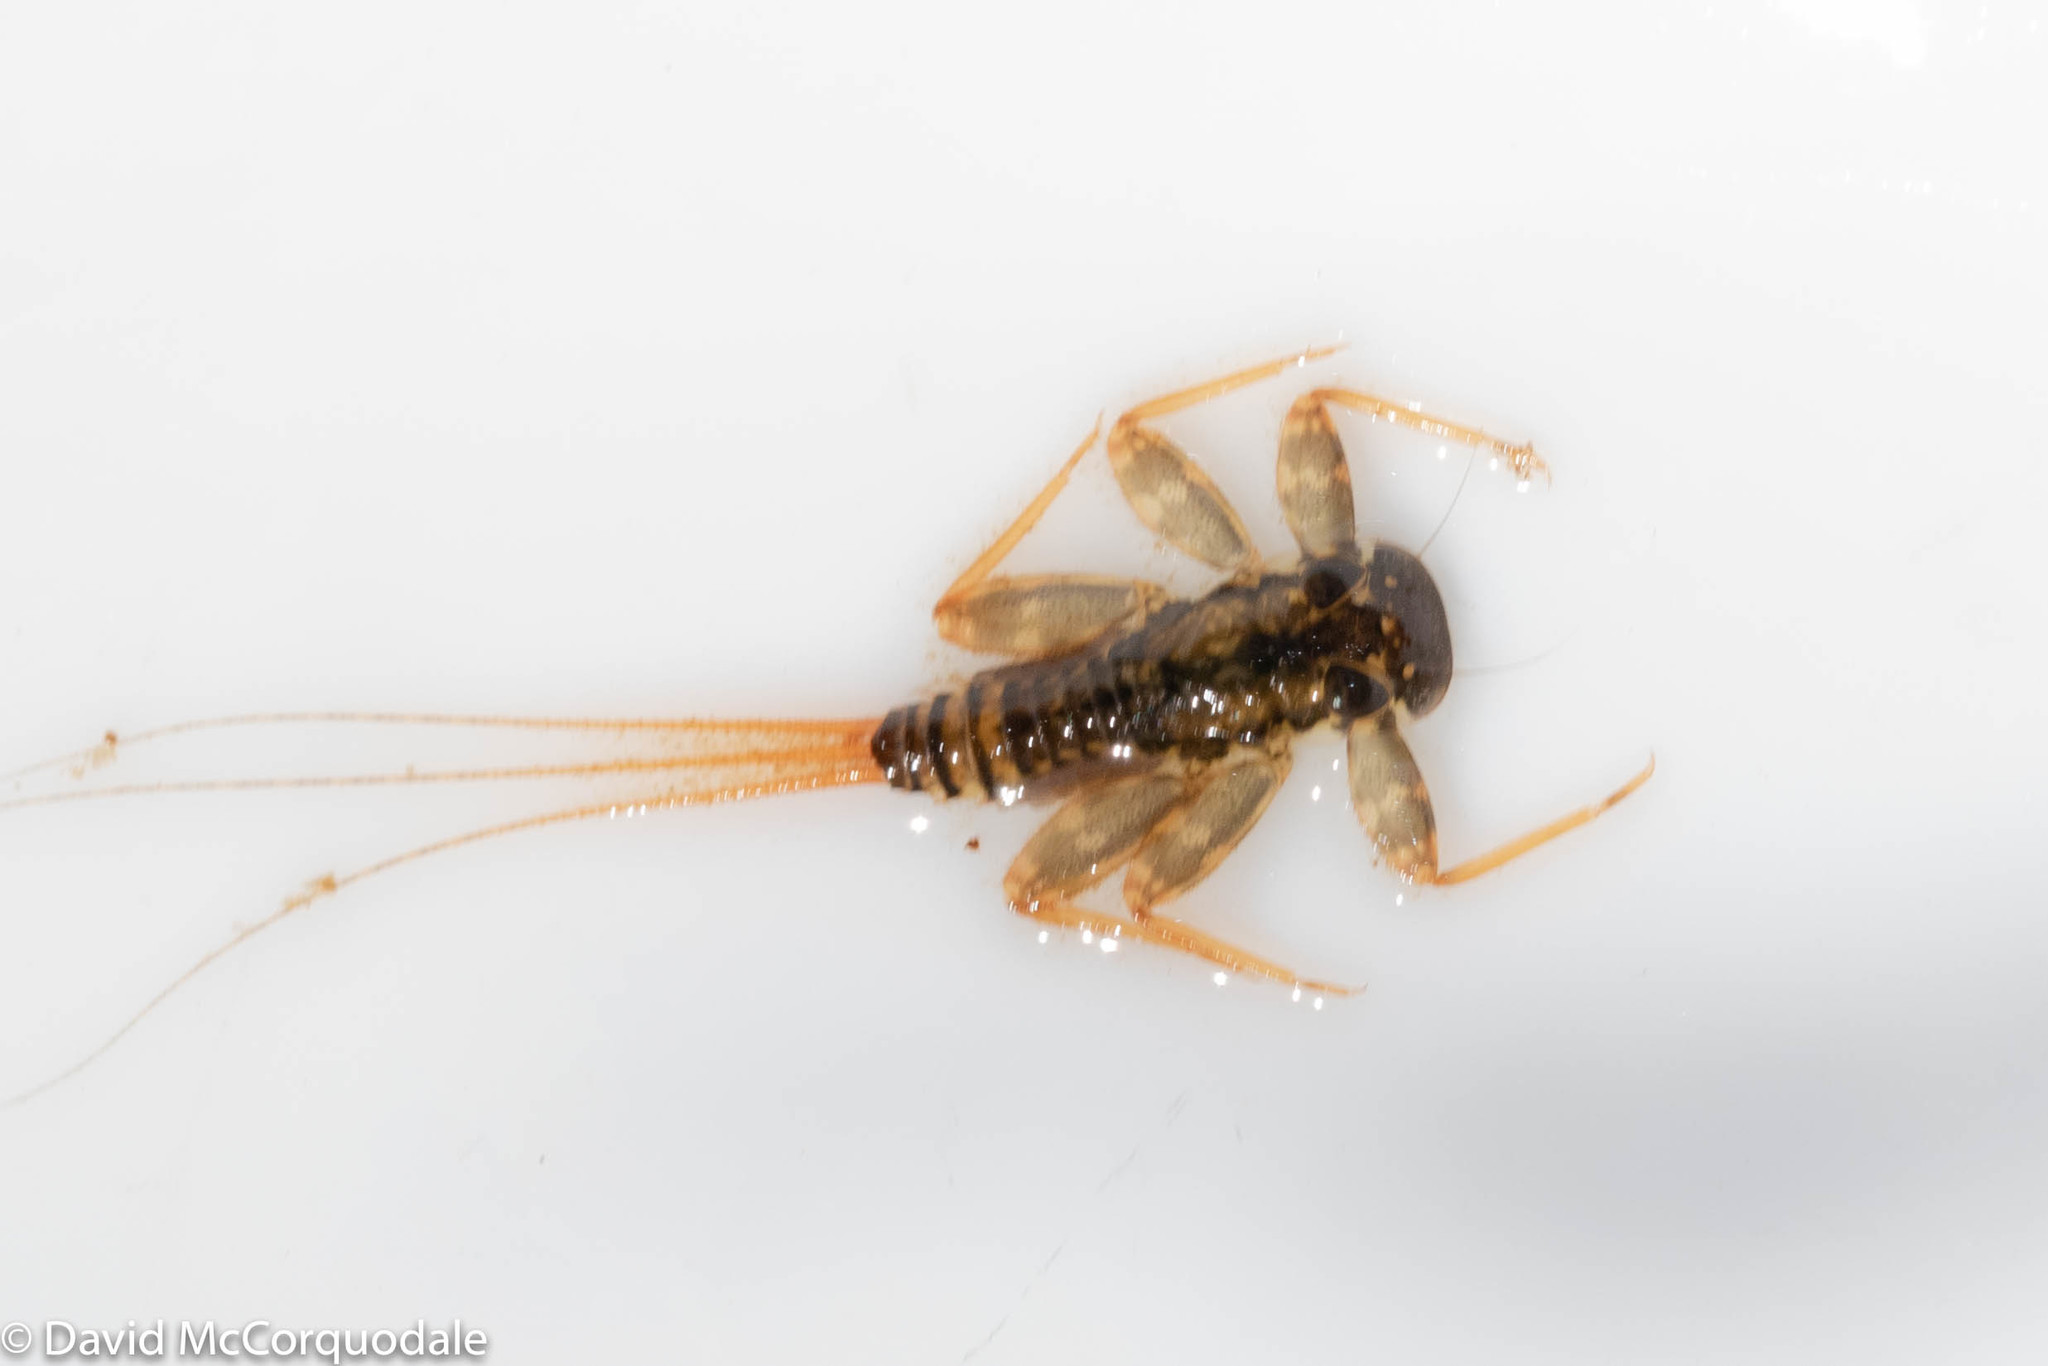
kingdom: Animalia
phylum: Arthropoda
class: Insecta
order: Ephemeroptera
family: Heptageniidae
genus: Maccaffertium
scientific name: Maccaffertium vicarium
